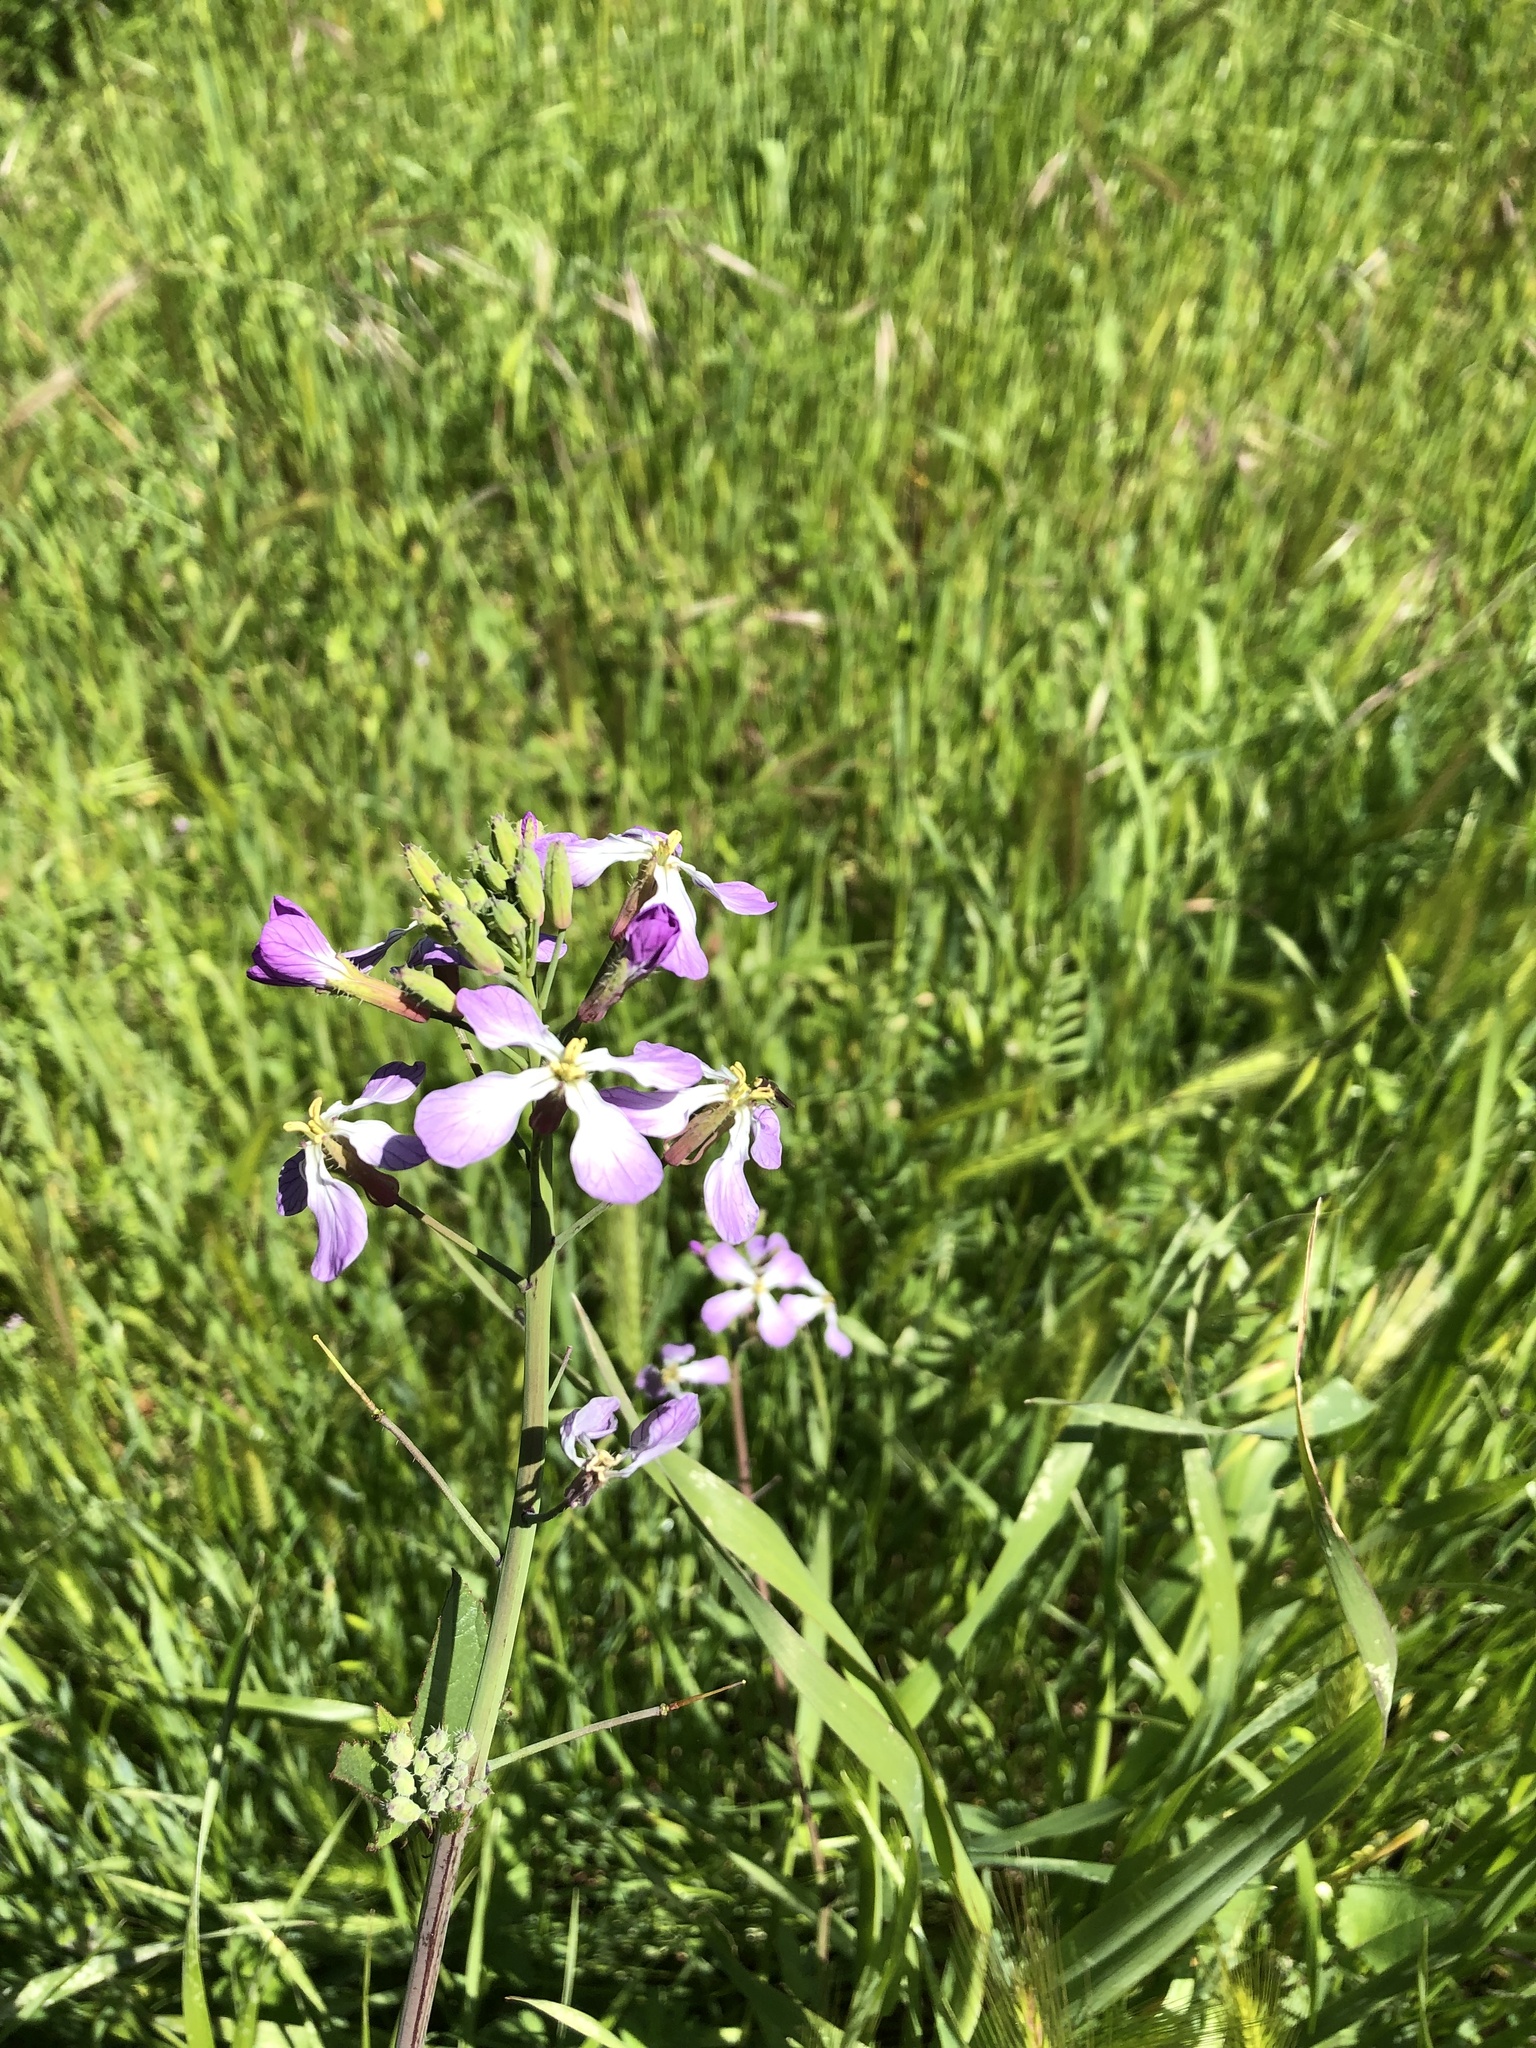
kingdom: Plantae
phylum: Tracheophyta
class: Magnoliopsida
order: Brassicales
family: Brassicaceae
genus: Raphanus
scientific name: Raphanus sativus
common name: Cultivated radish
